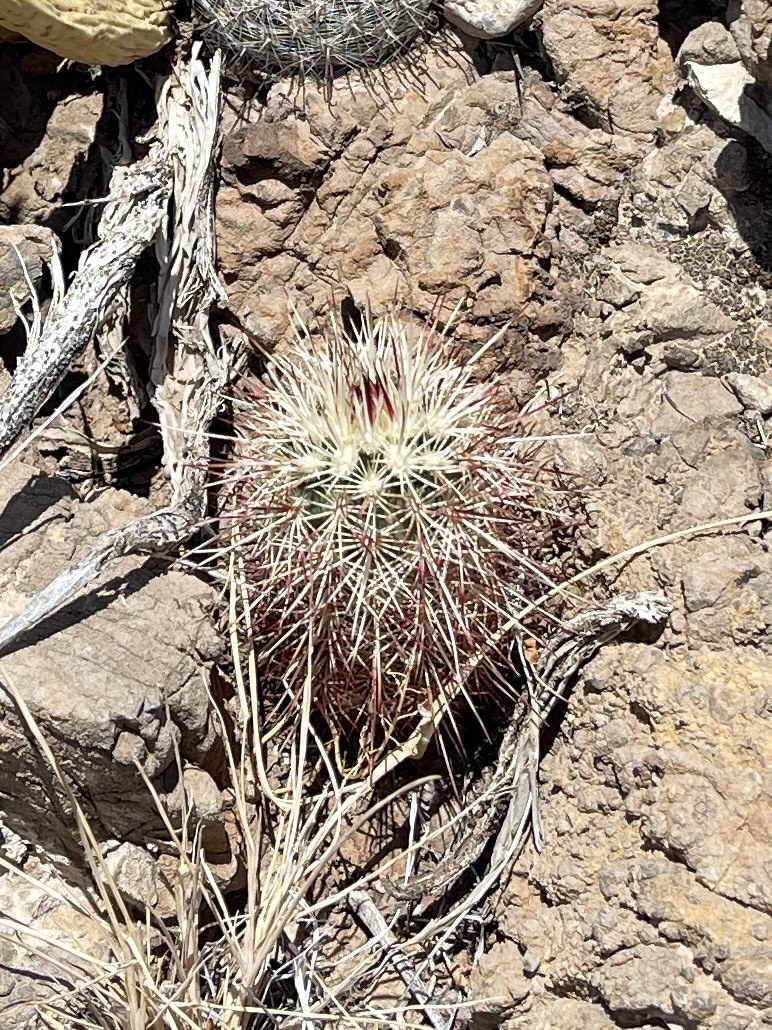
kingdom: Plantae
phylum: Tracheophyta
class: Magnoliopsida
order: Caryophyllales
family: Cactaceae
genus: Echinocereus
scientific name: Echinocereus viridiflorus
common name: Nylon hedgehog cactus
